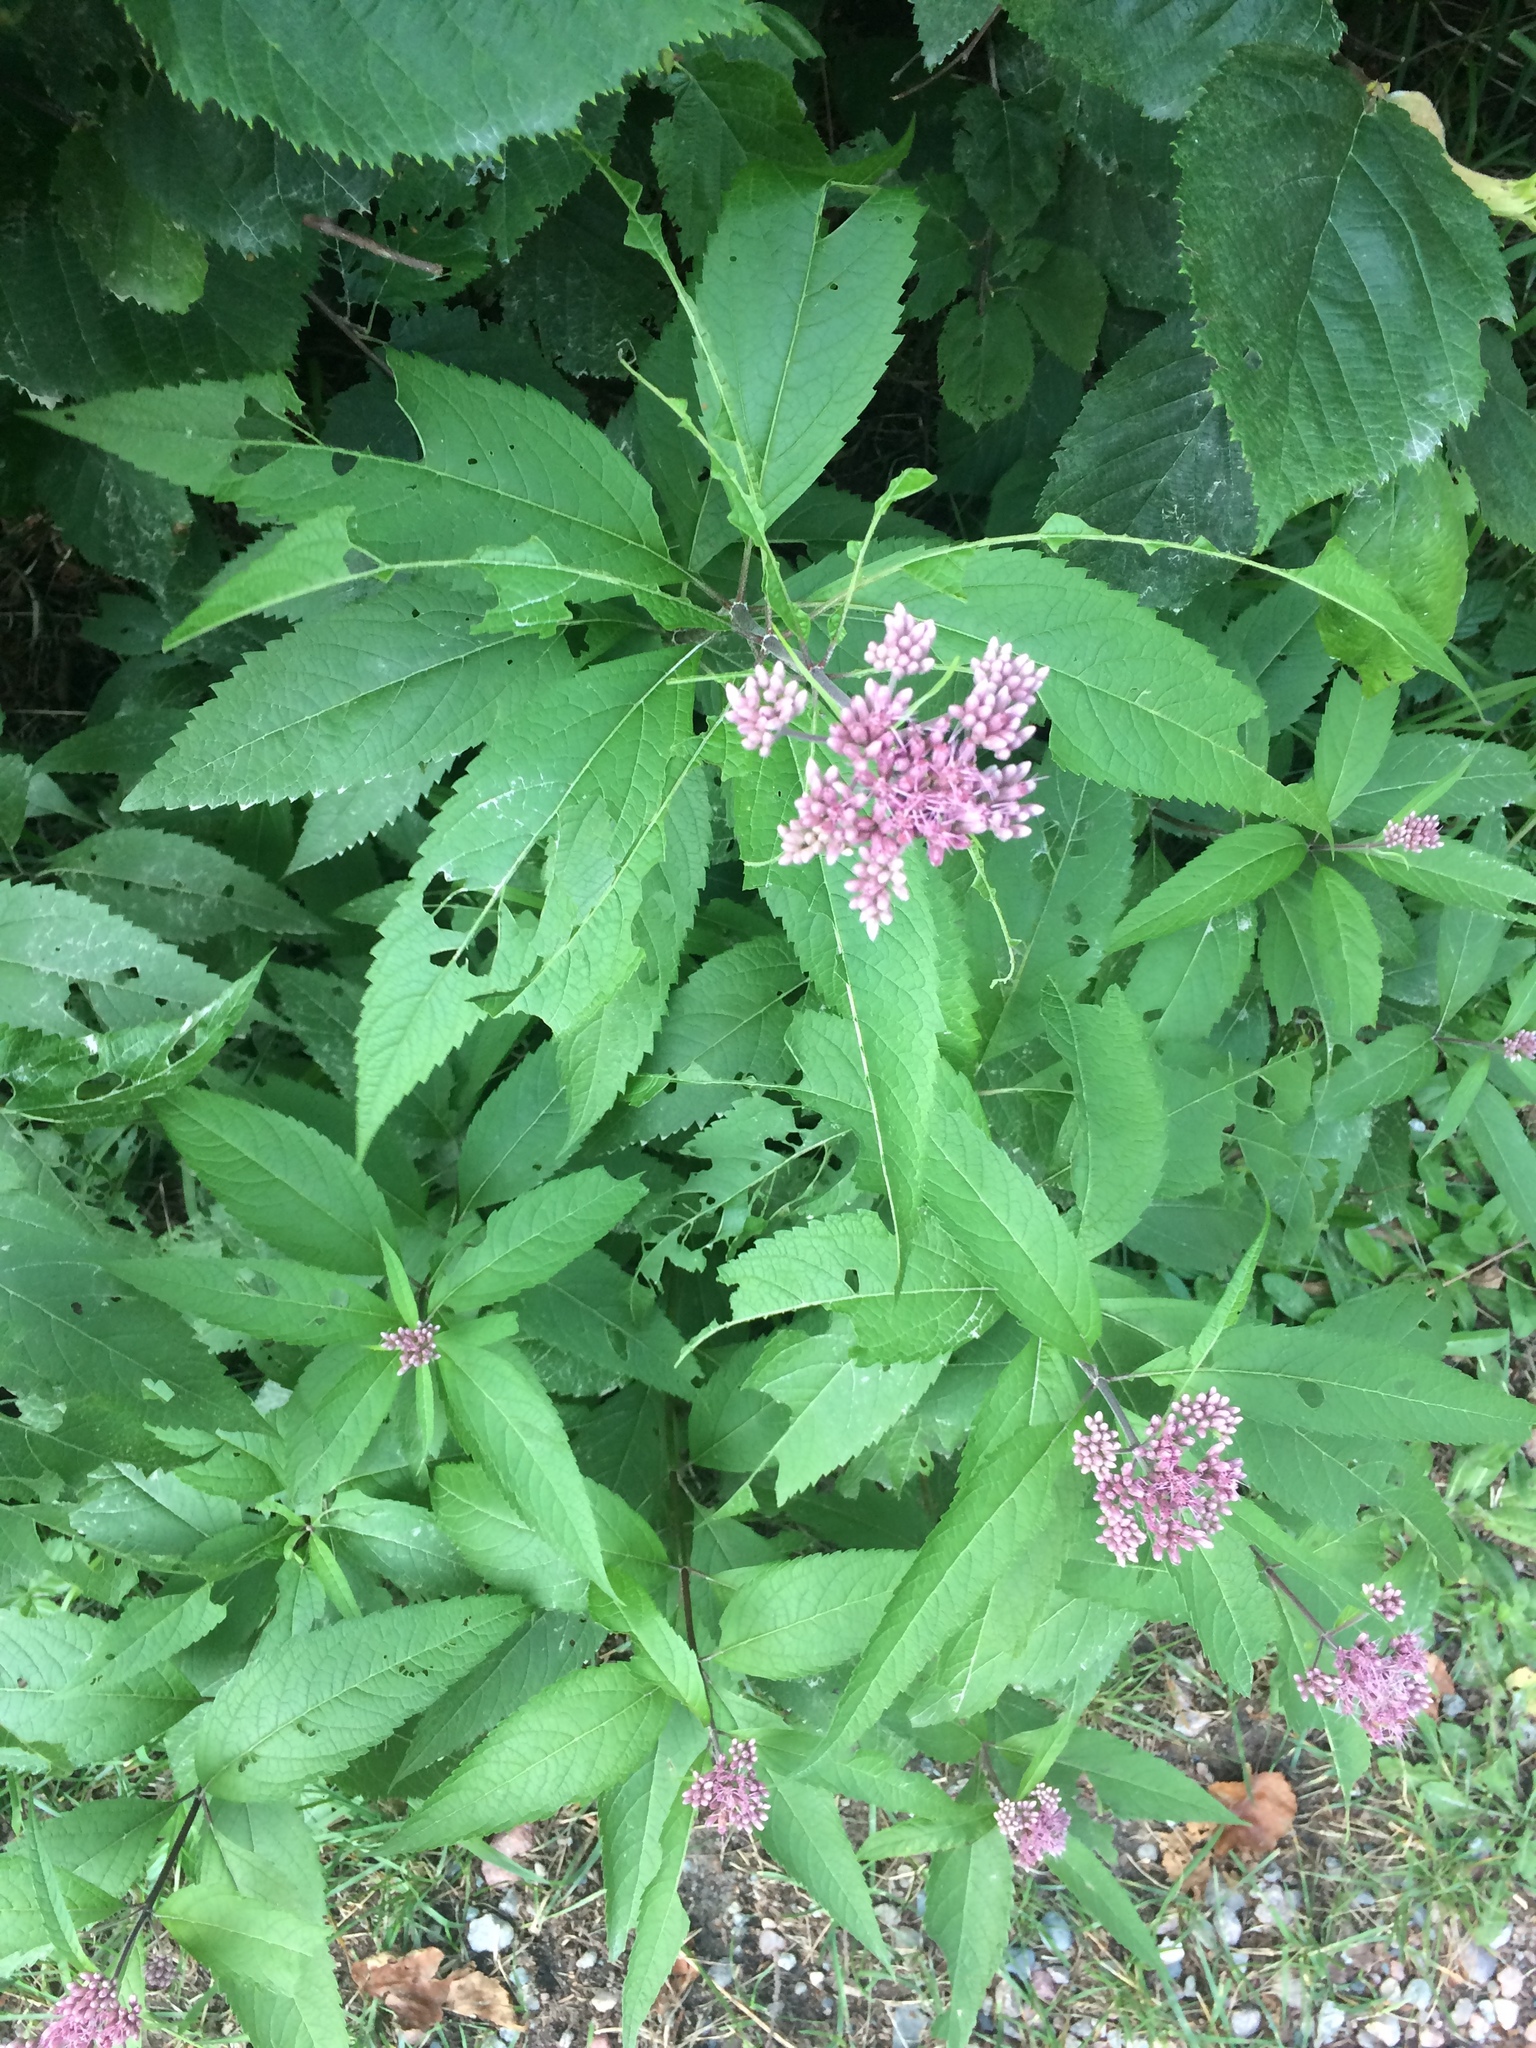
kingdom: Plantae
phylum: Tracheophyta
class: Magnoliopsida
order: Asterales
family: Asteraceae
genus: Eutrochium
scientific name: Eutrochium maculatum
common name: Spotted joe pye weed
